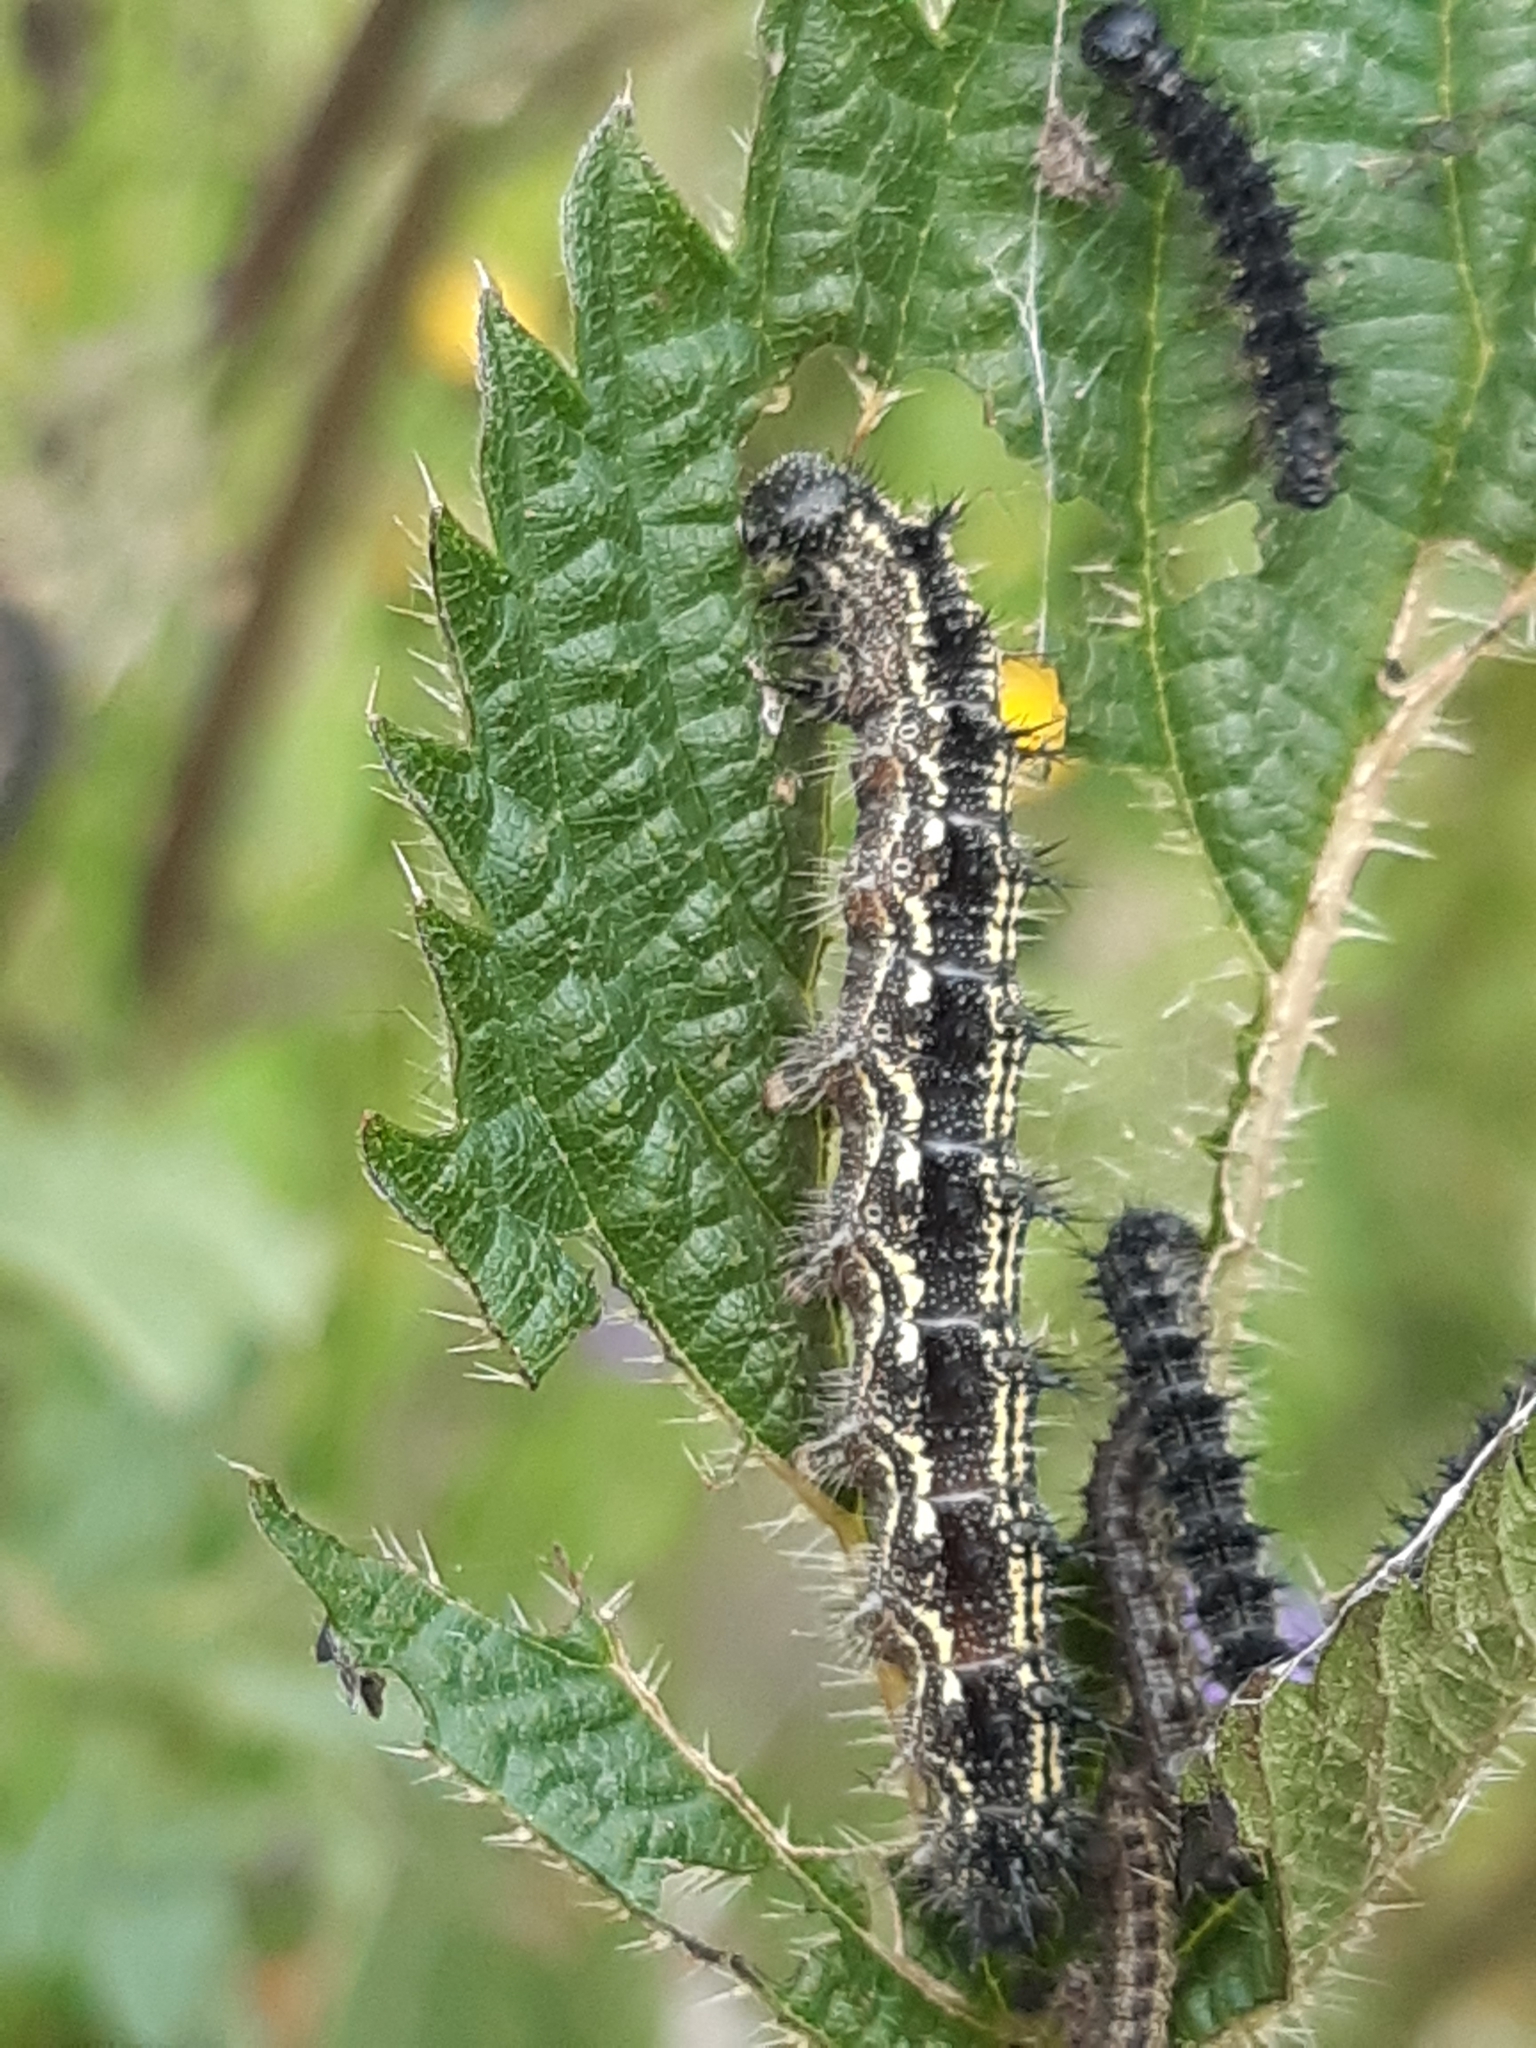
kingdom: Animalia
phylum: Arthropoda
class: Insecta
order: Lepidoptera
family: Nymphalidae
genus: Aglais
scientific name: Aglais urticae
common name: Small tortoiseshell
